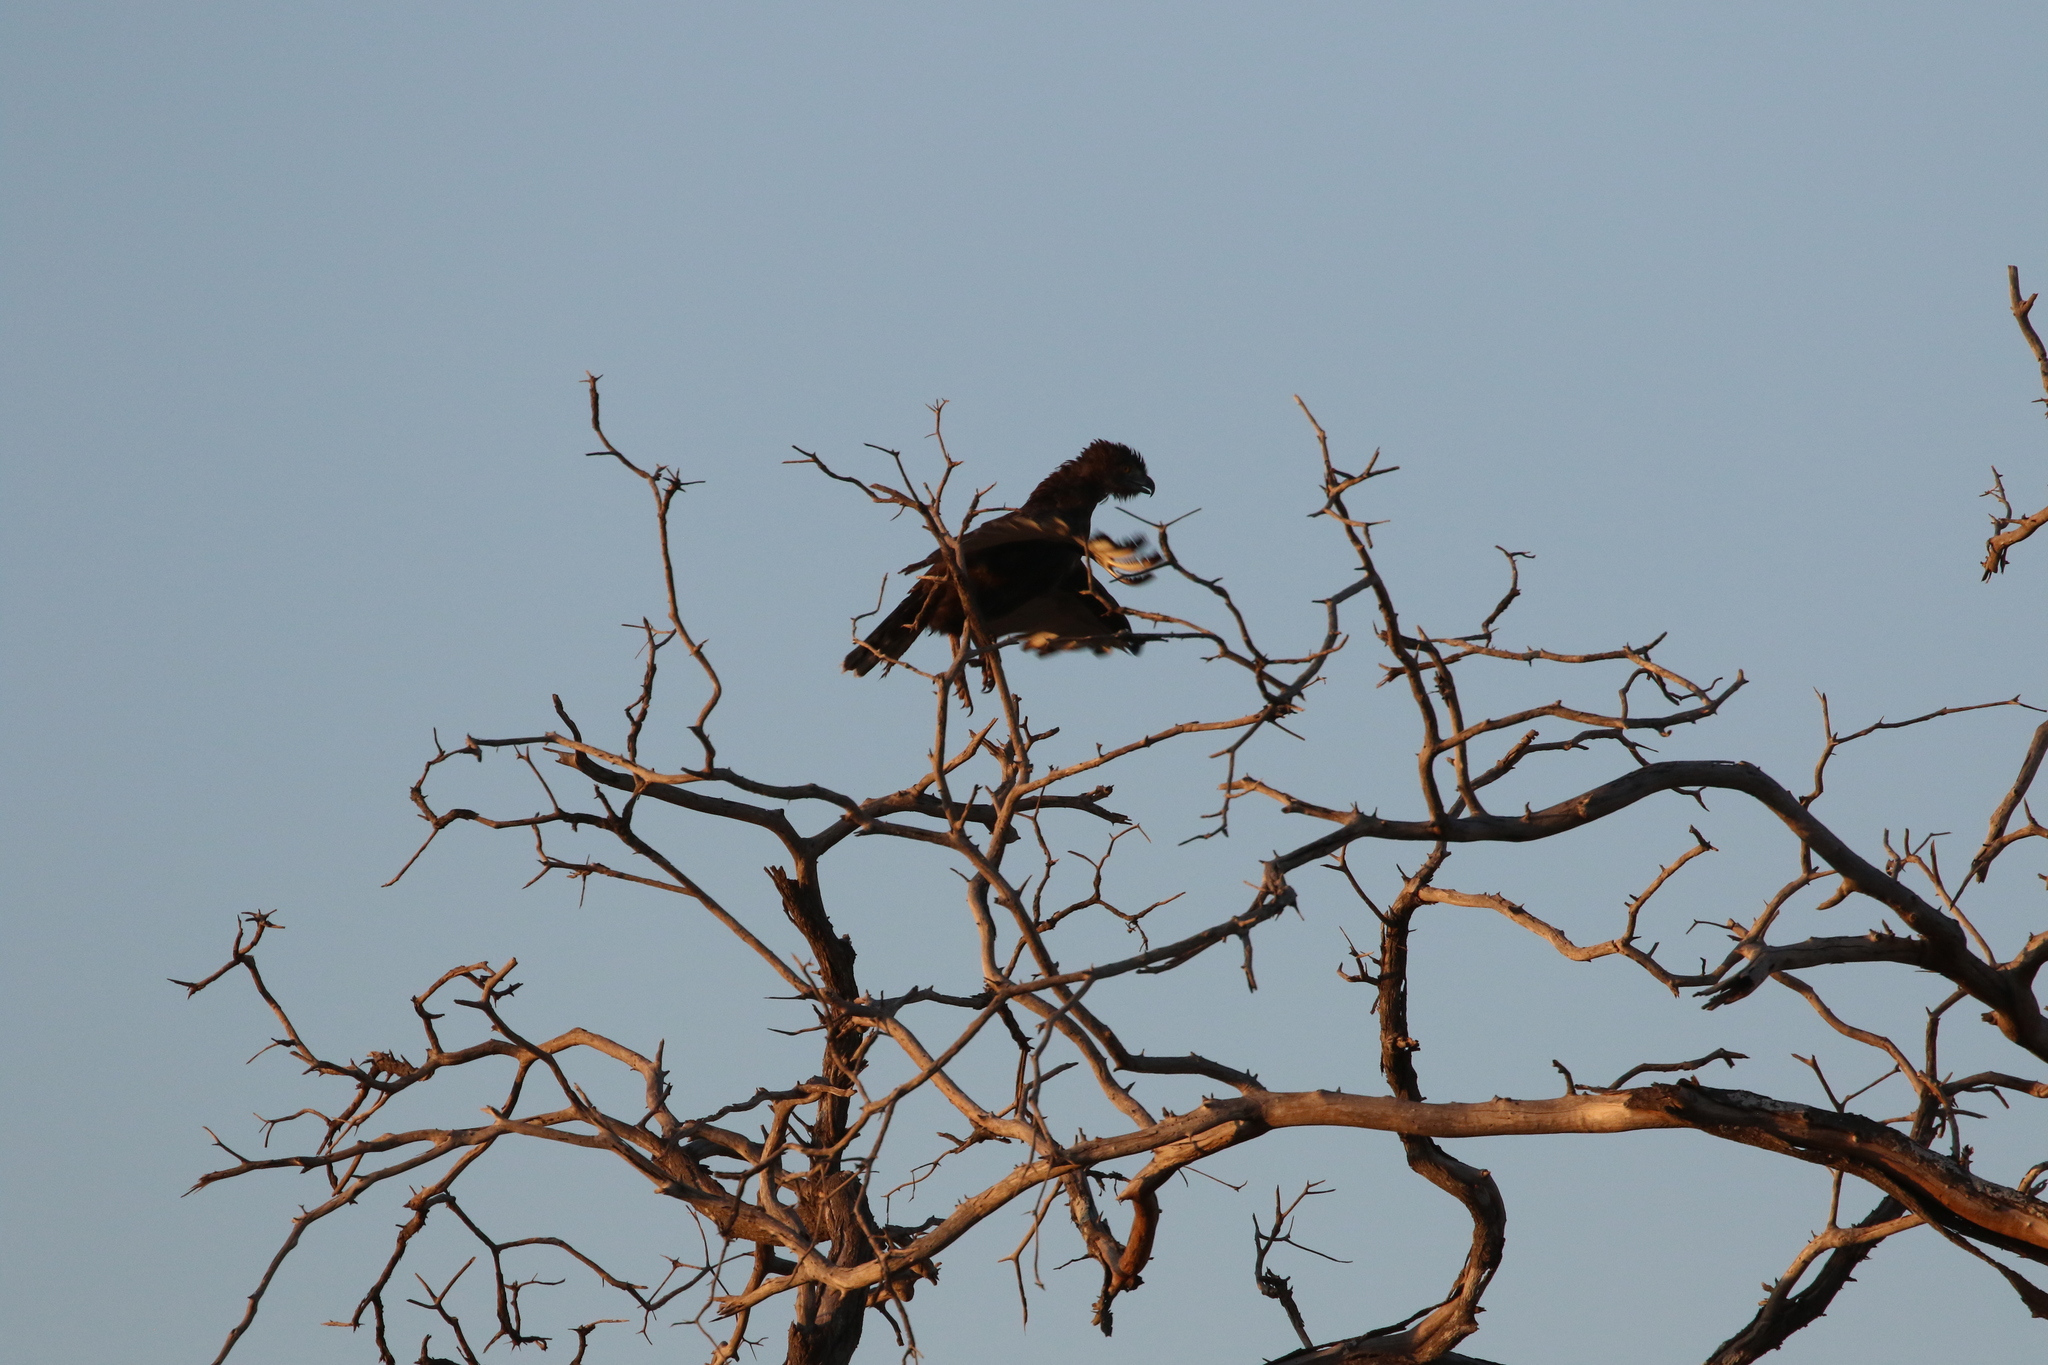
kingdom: Animalia
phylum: Chordata
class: Aves
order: Accipitriformes
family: Accipitridae
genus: Circaetus
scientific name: Circaetus cinereus
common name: Brown snake eagle
